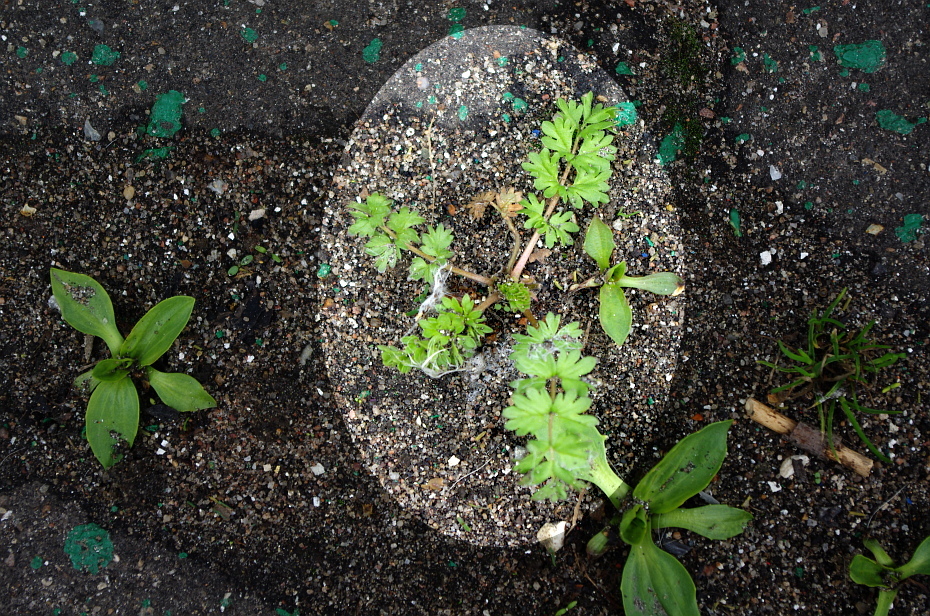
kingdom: Plantae
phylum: Tracheophyta
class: Magnoliopsida
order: Rosales
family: Rosaceae
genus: Potentilla
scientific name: Potentilla supina
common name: Prostrate cinquefoil
